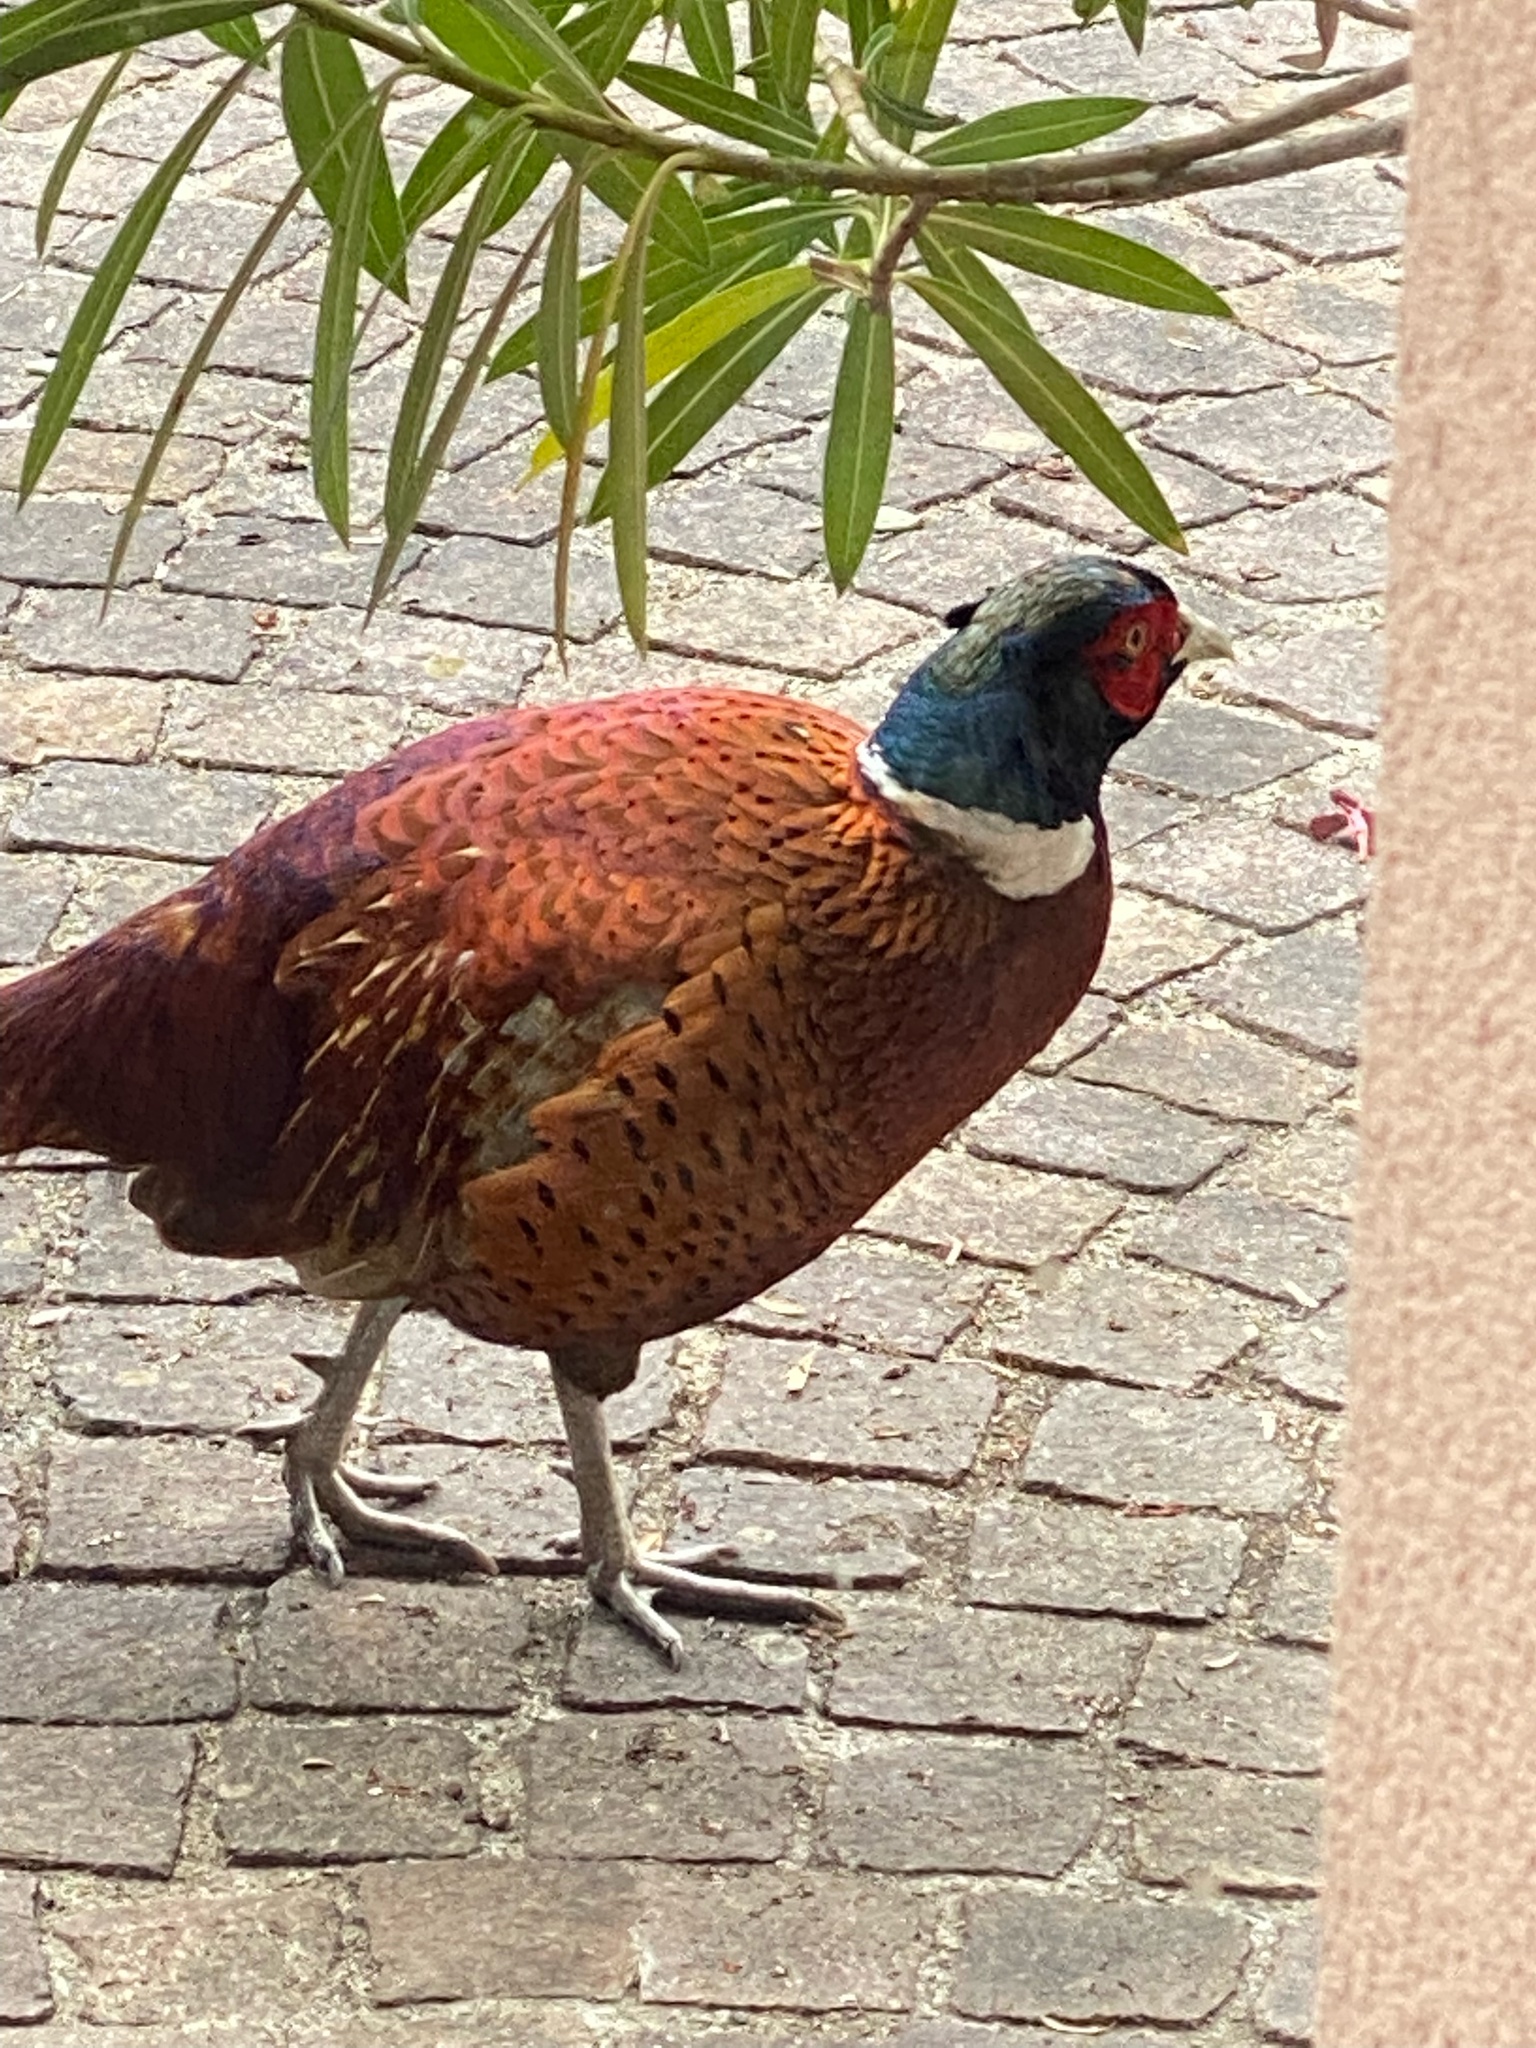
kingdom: Animalia
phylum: Chordata
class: Aves
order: Galliformes
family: Phasianidae
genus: Phasianus
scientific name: Phasianus colchicus
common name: Common pheasant
